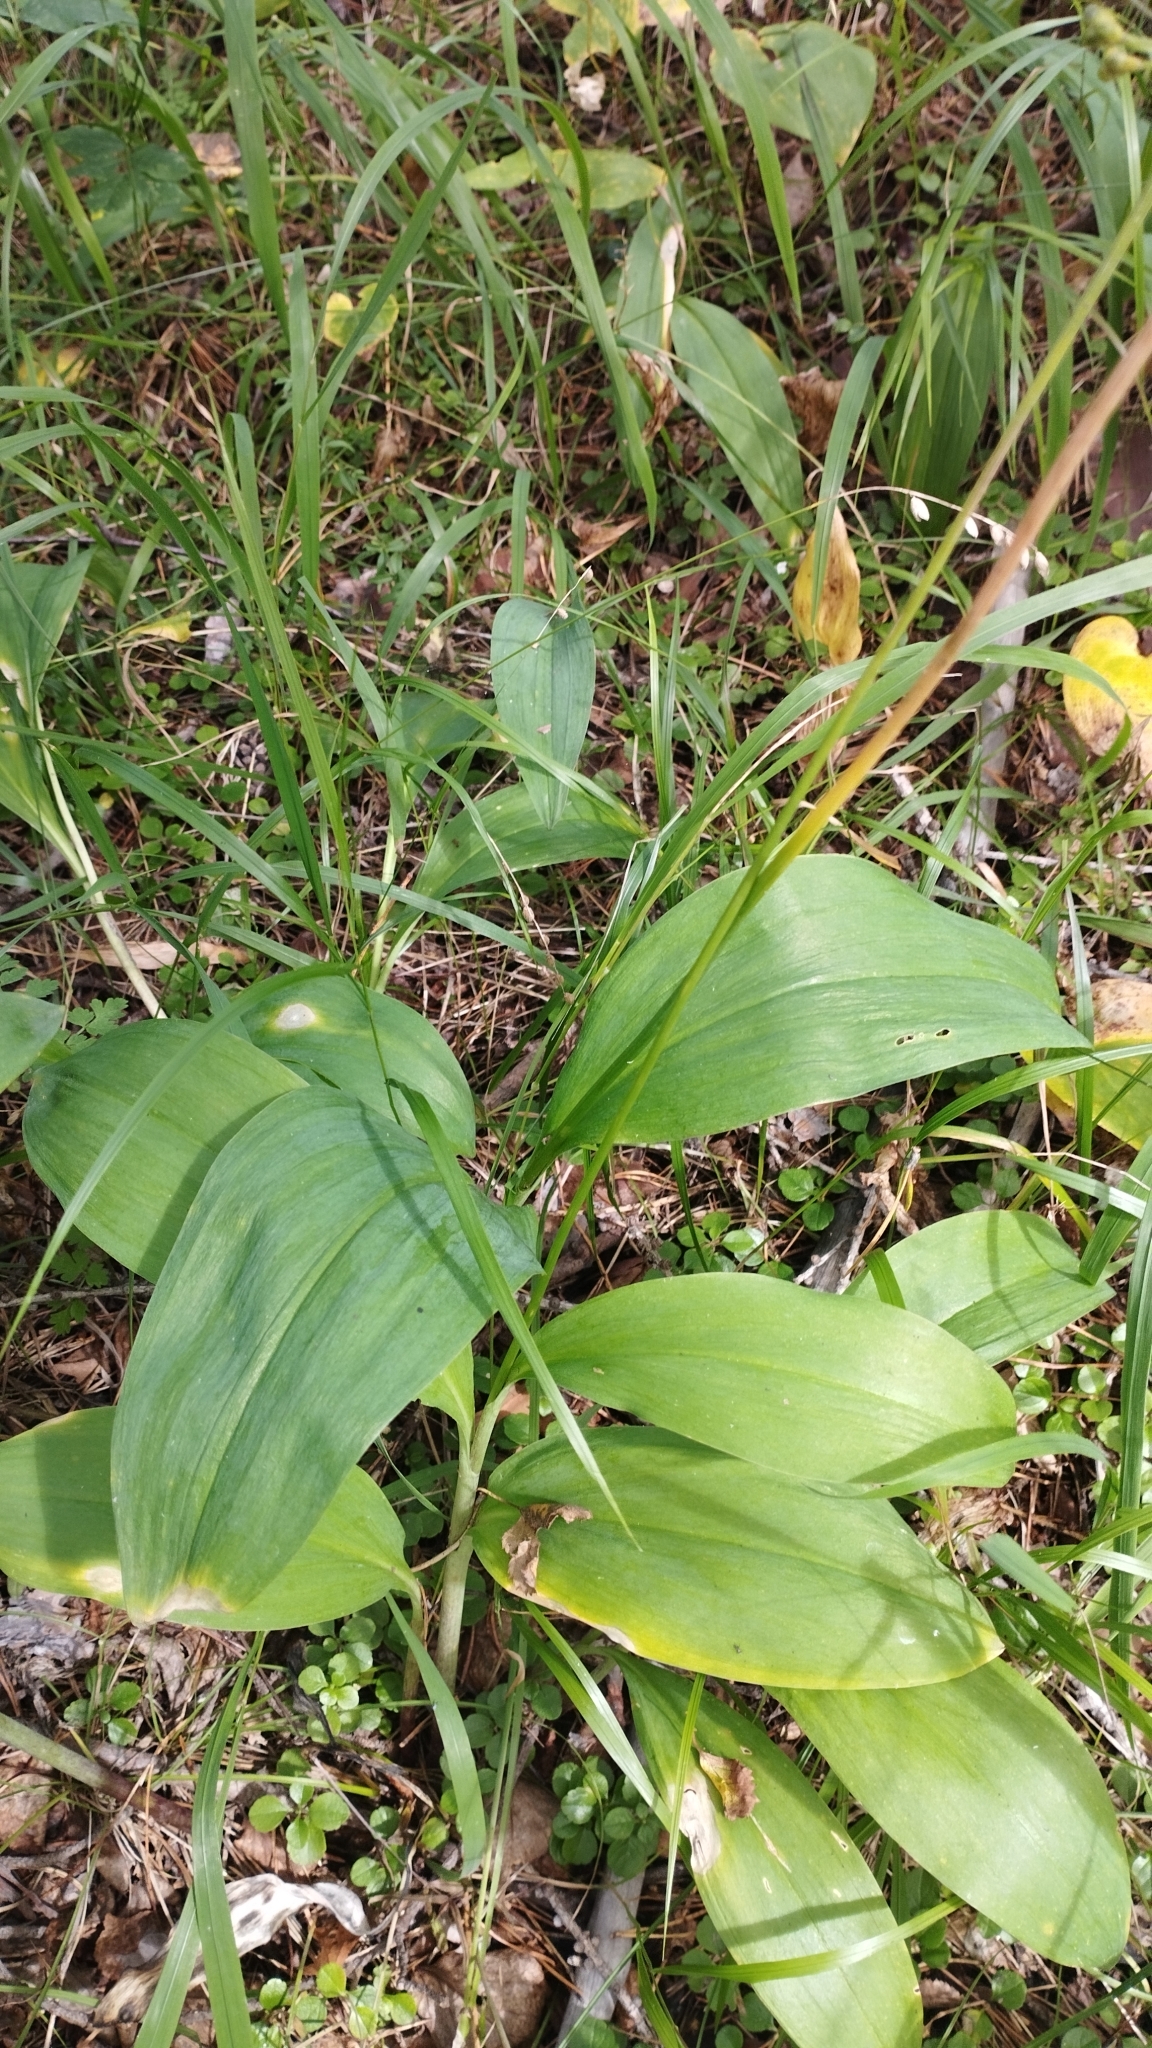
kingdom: Plantae
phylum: Tracheophyta
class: Liliopsida
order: Asparagales
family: Amaryllidaceae
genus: Allium
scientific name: Allium microdictyon
